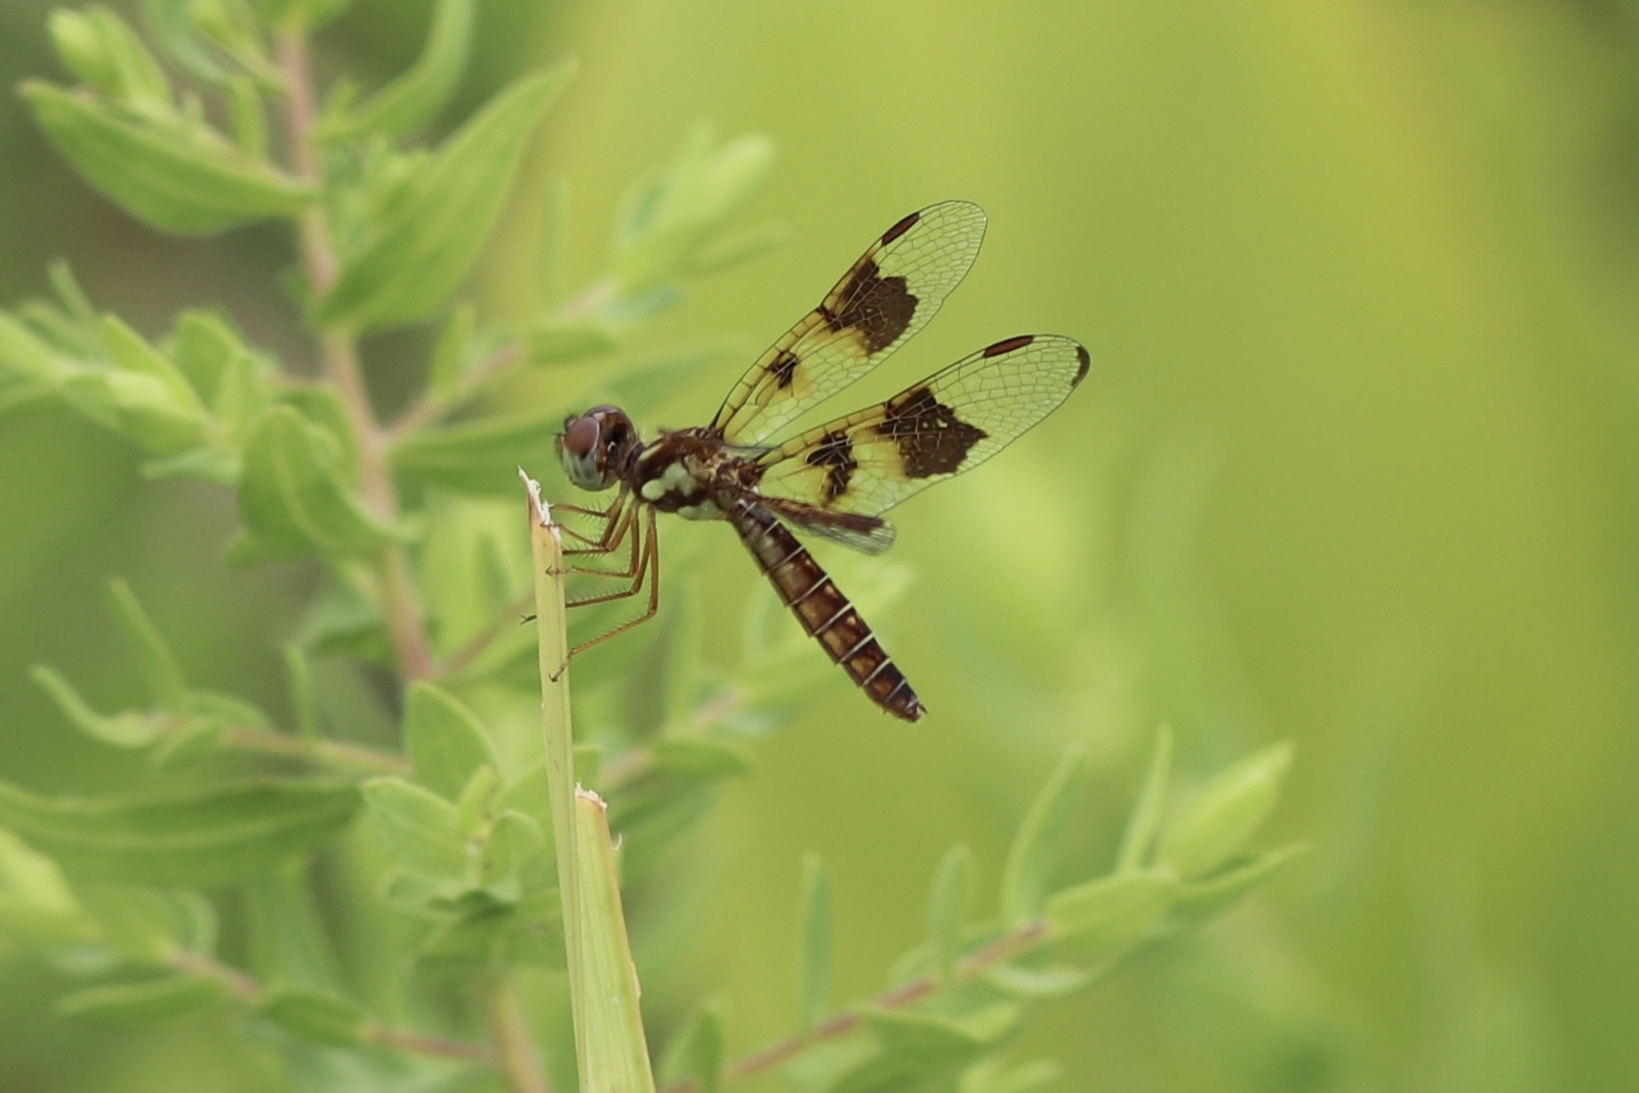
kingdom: Animalia
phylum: Arthropoda
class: Insecta
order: Odonata
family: Libellulidae
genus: Perithemis
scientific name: Perithemis tenera
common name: Eastern amberwing
